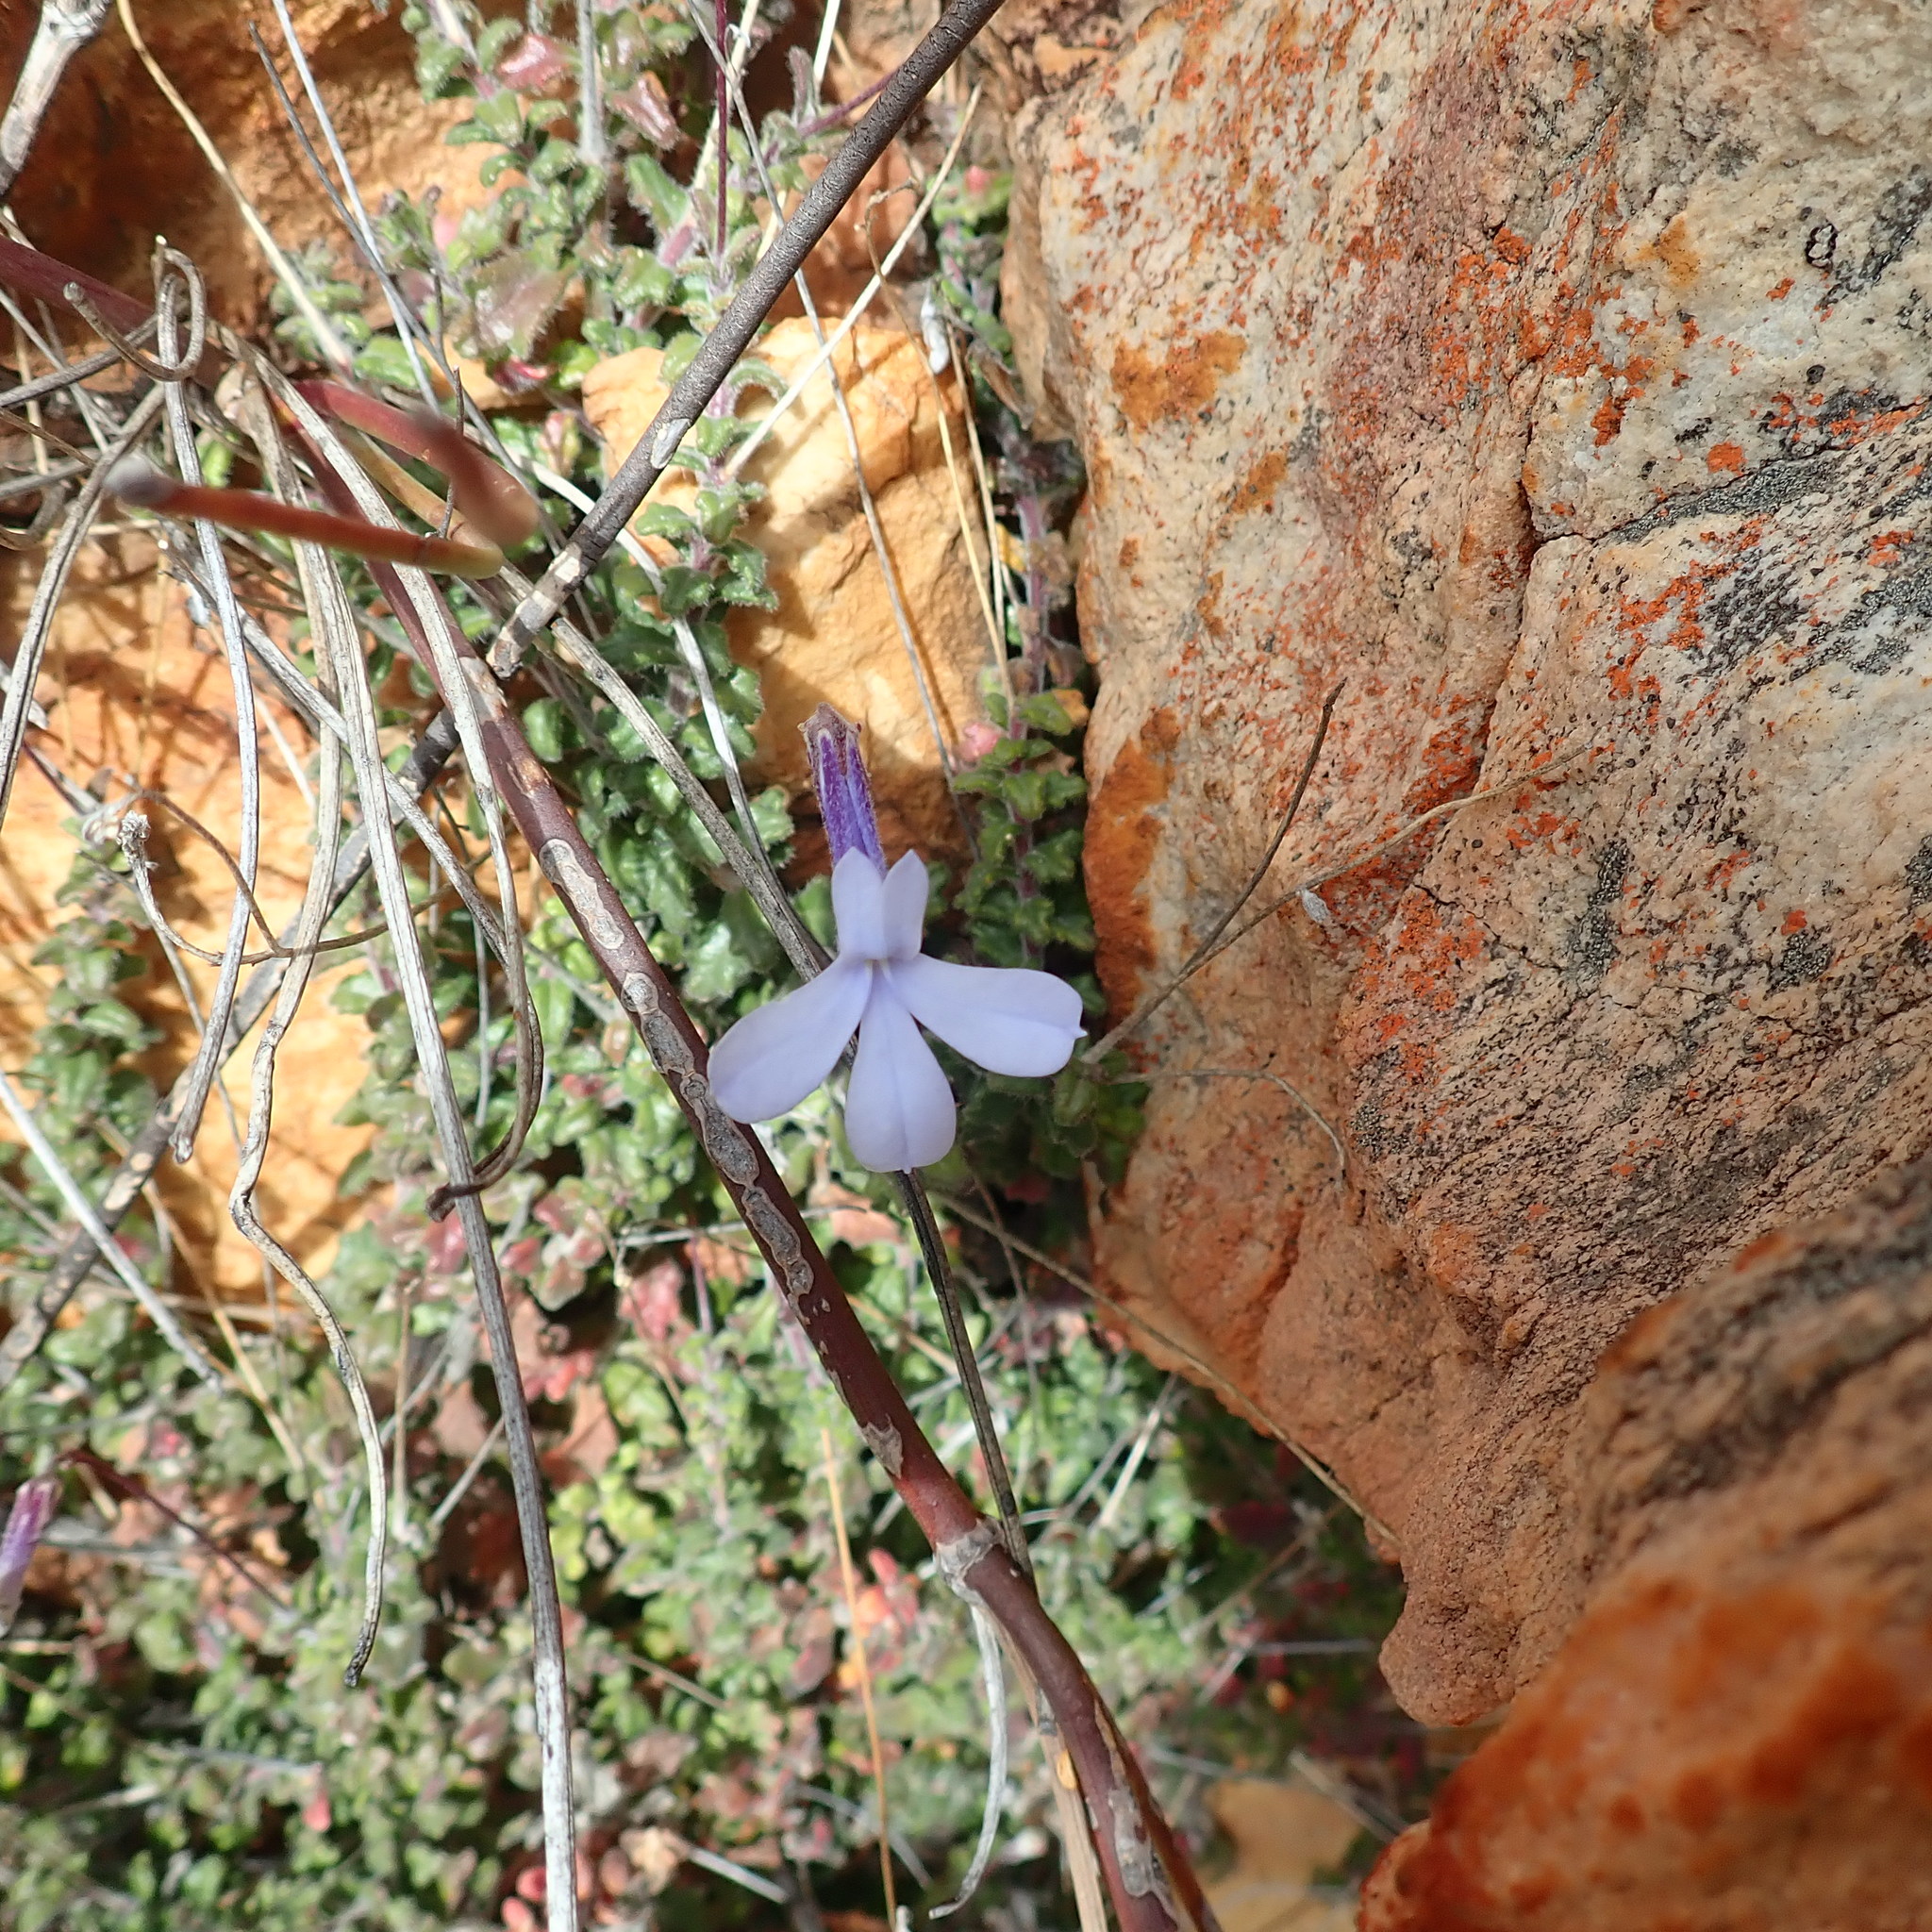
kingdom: Plantae
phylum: Tracheophyta
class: Magnoliopsida
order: Asterales
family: Campanulaceae
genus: Lobelia
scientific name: Lobelia dichroma
